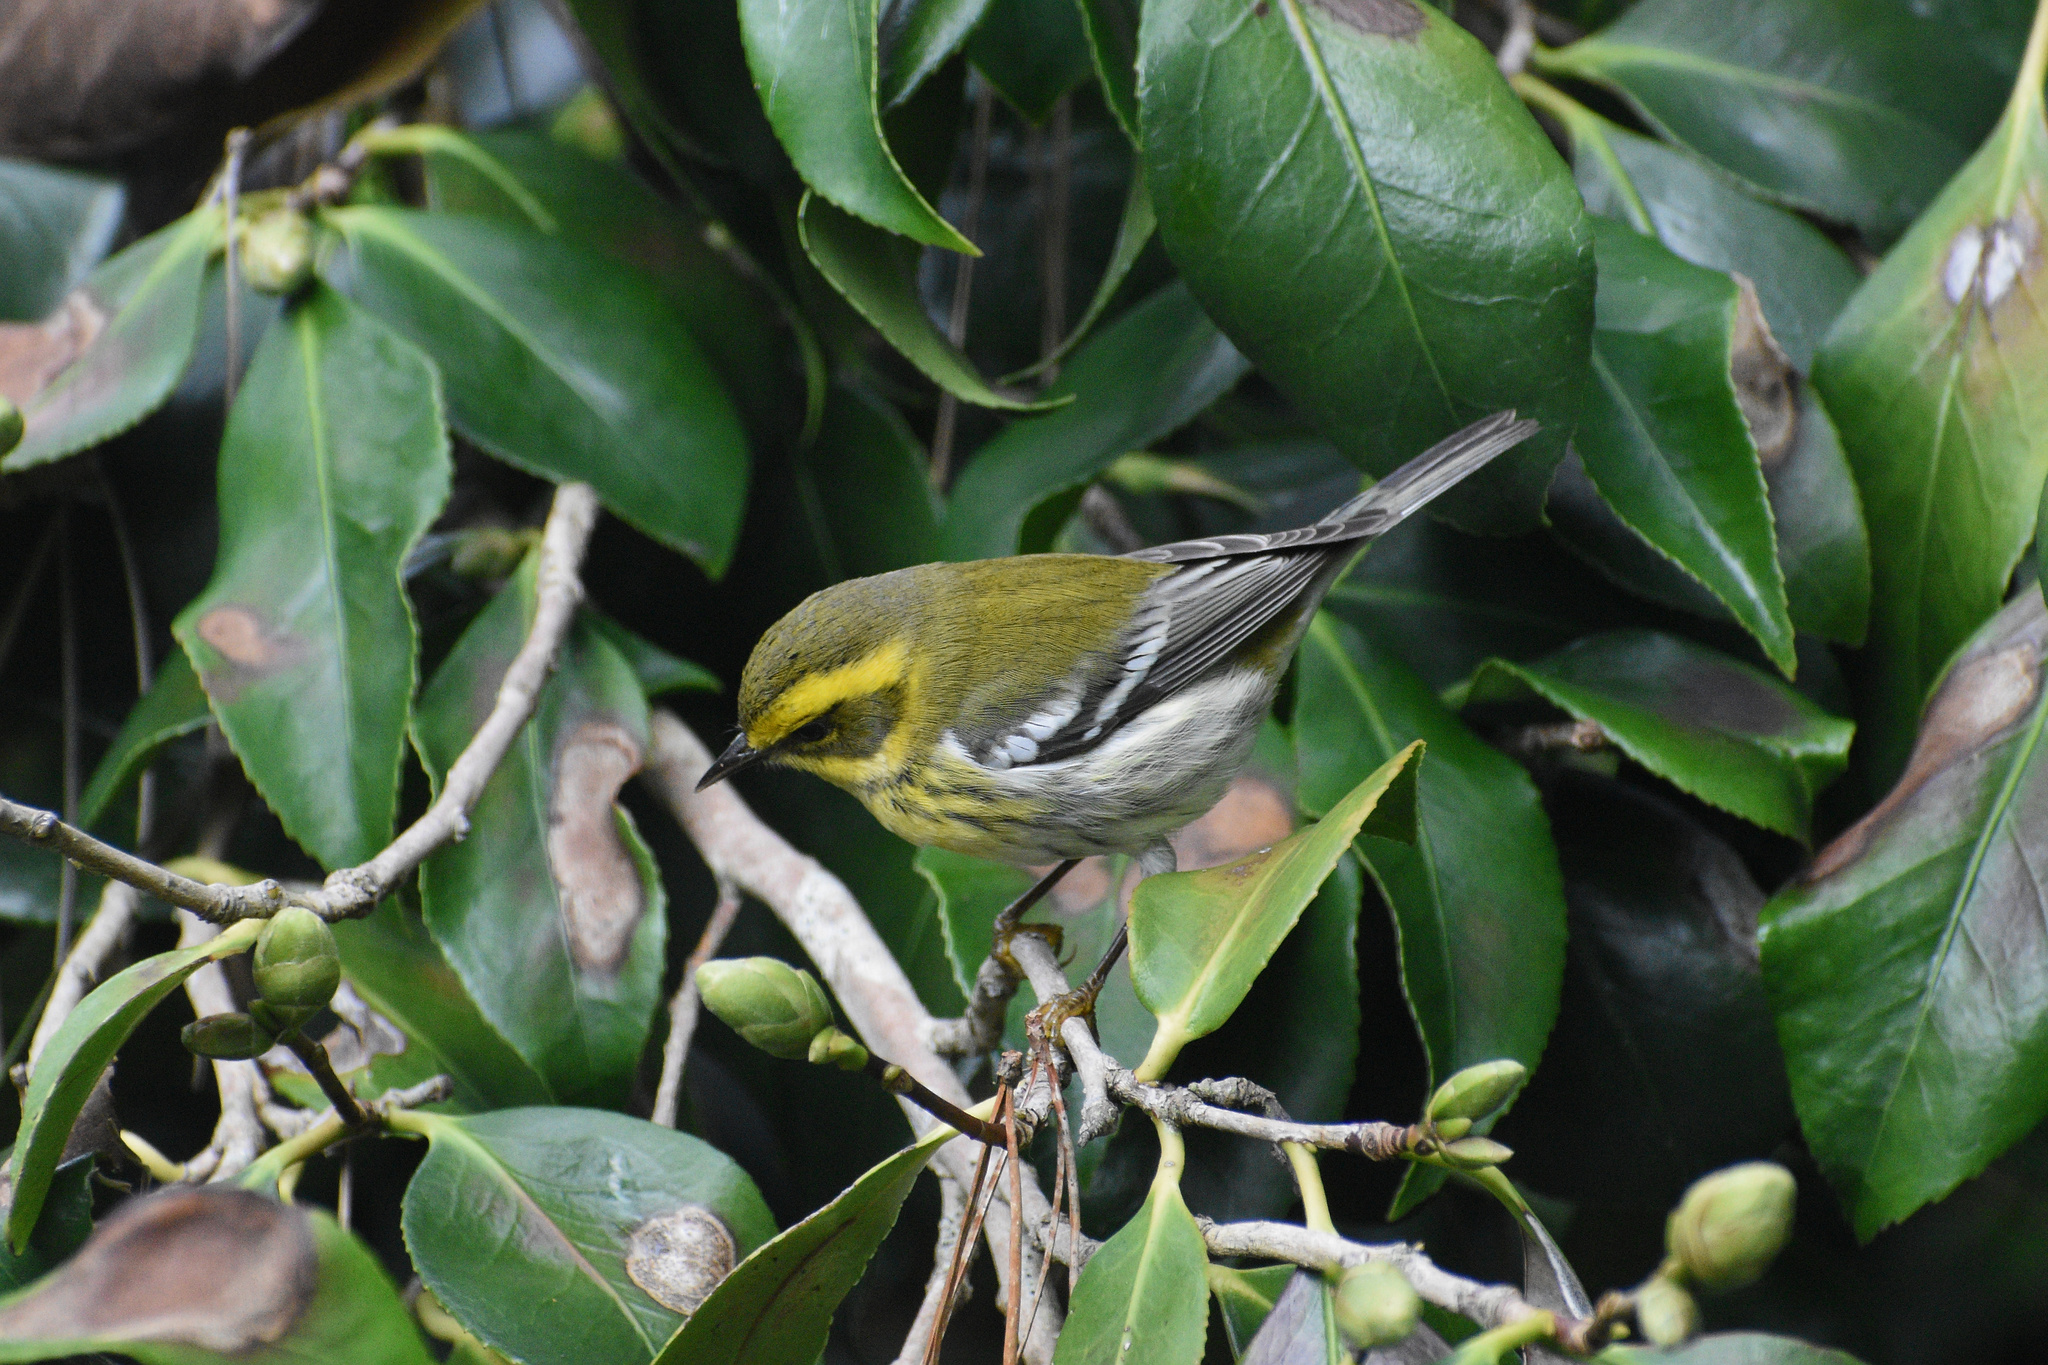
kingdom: Animalia
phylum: Chordata
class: Aves
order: Passeriformes
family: Parulidae
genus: Setophaga
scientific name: Setophaga townsendi
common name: Townsend's warbler
